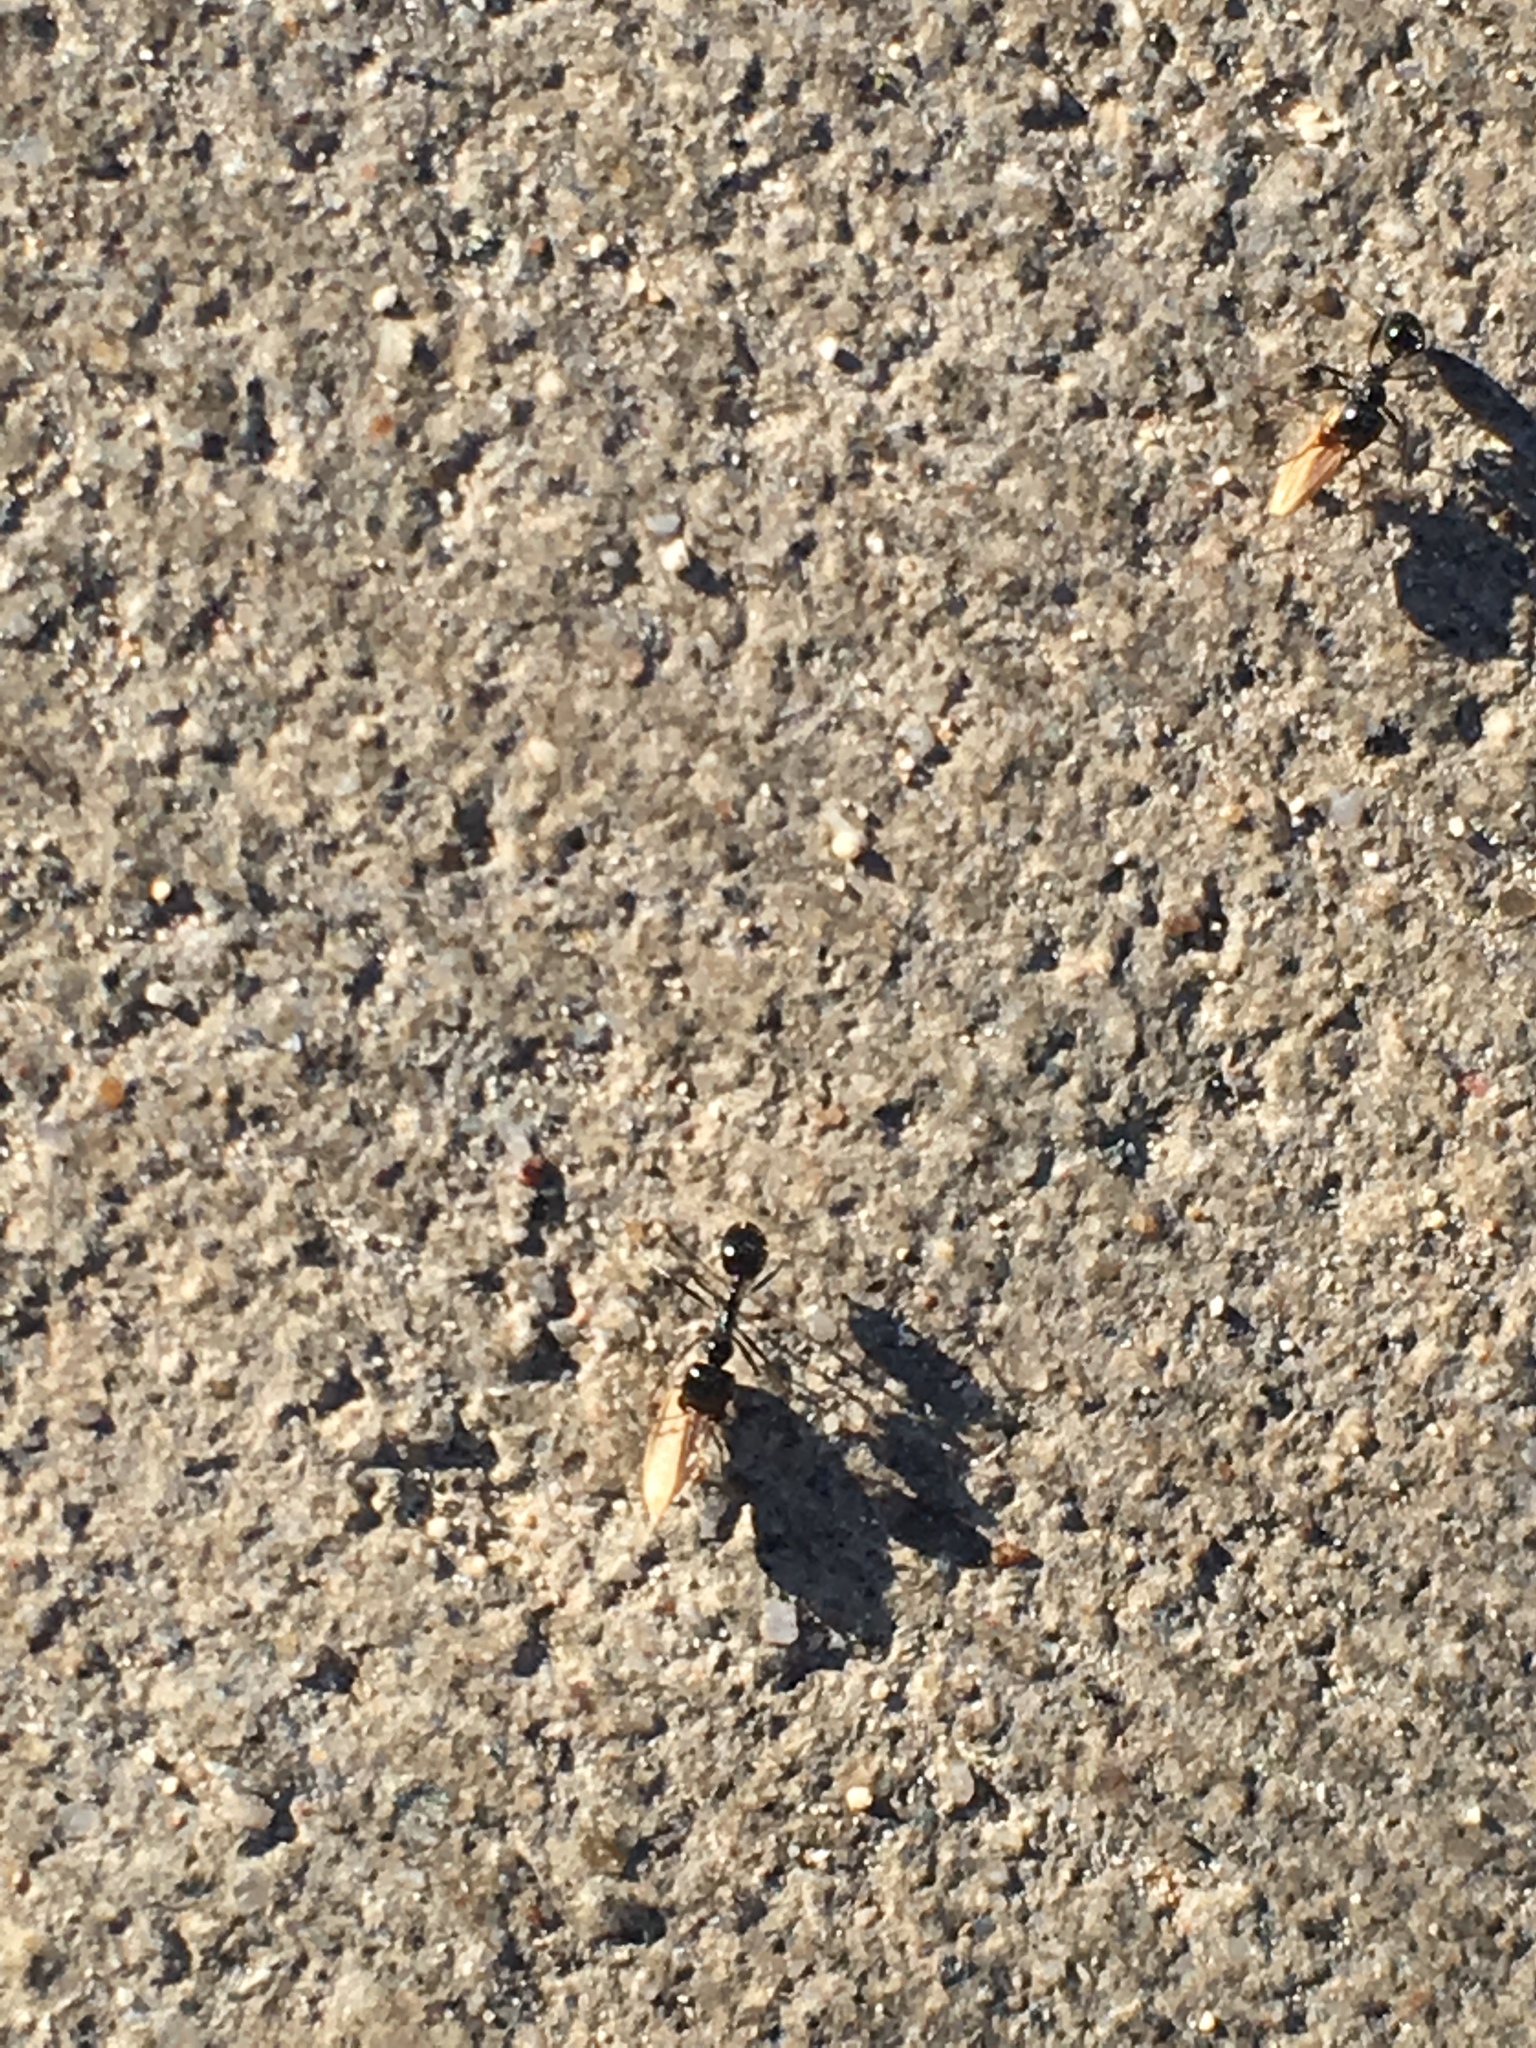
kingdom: Animalia
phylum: Arthropoda
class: Insecta
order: Hymenoptera
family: Formicidae
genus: Messor
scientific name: Messor pergandei
